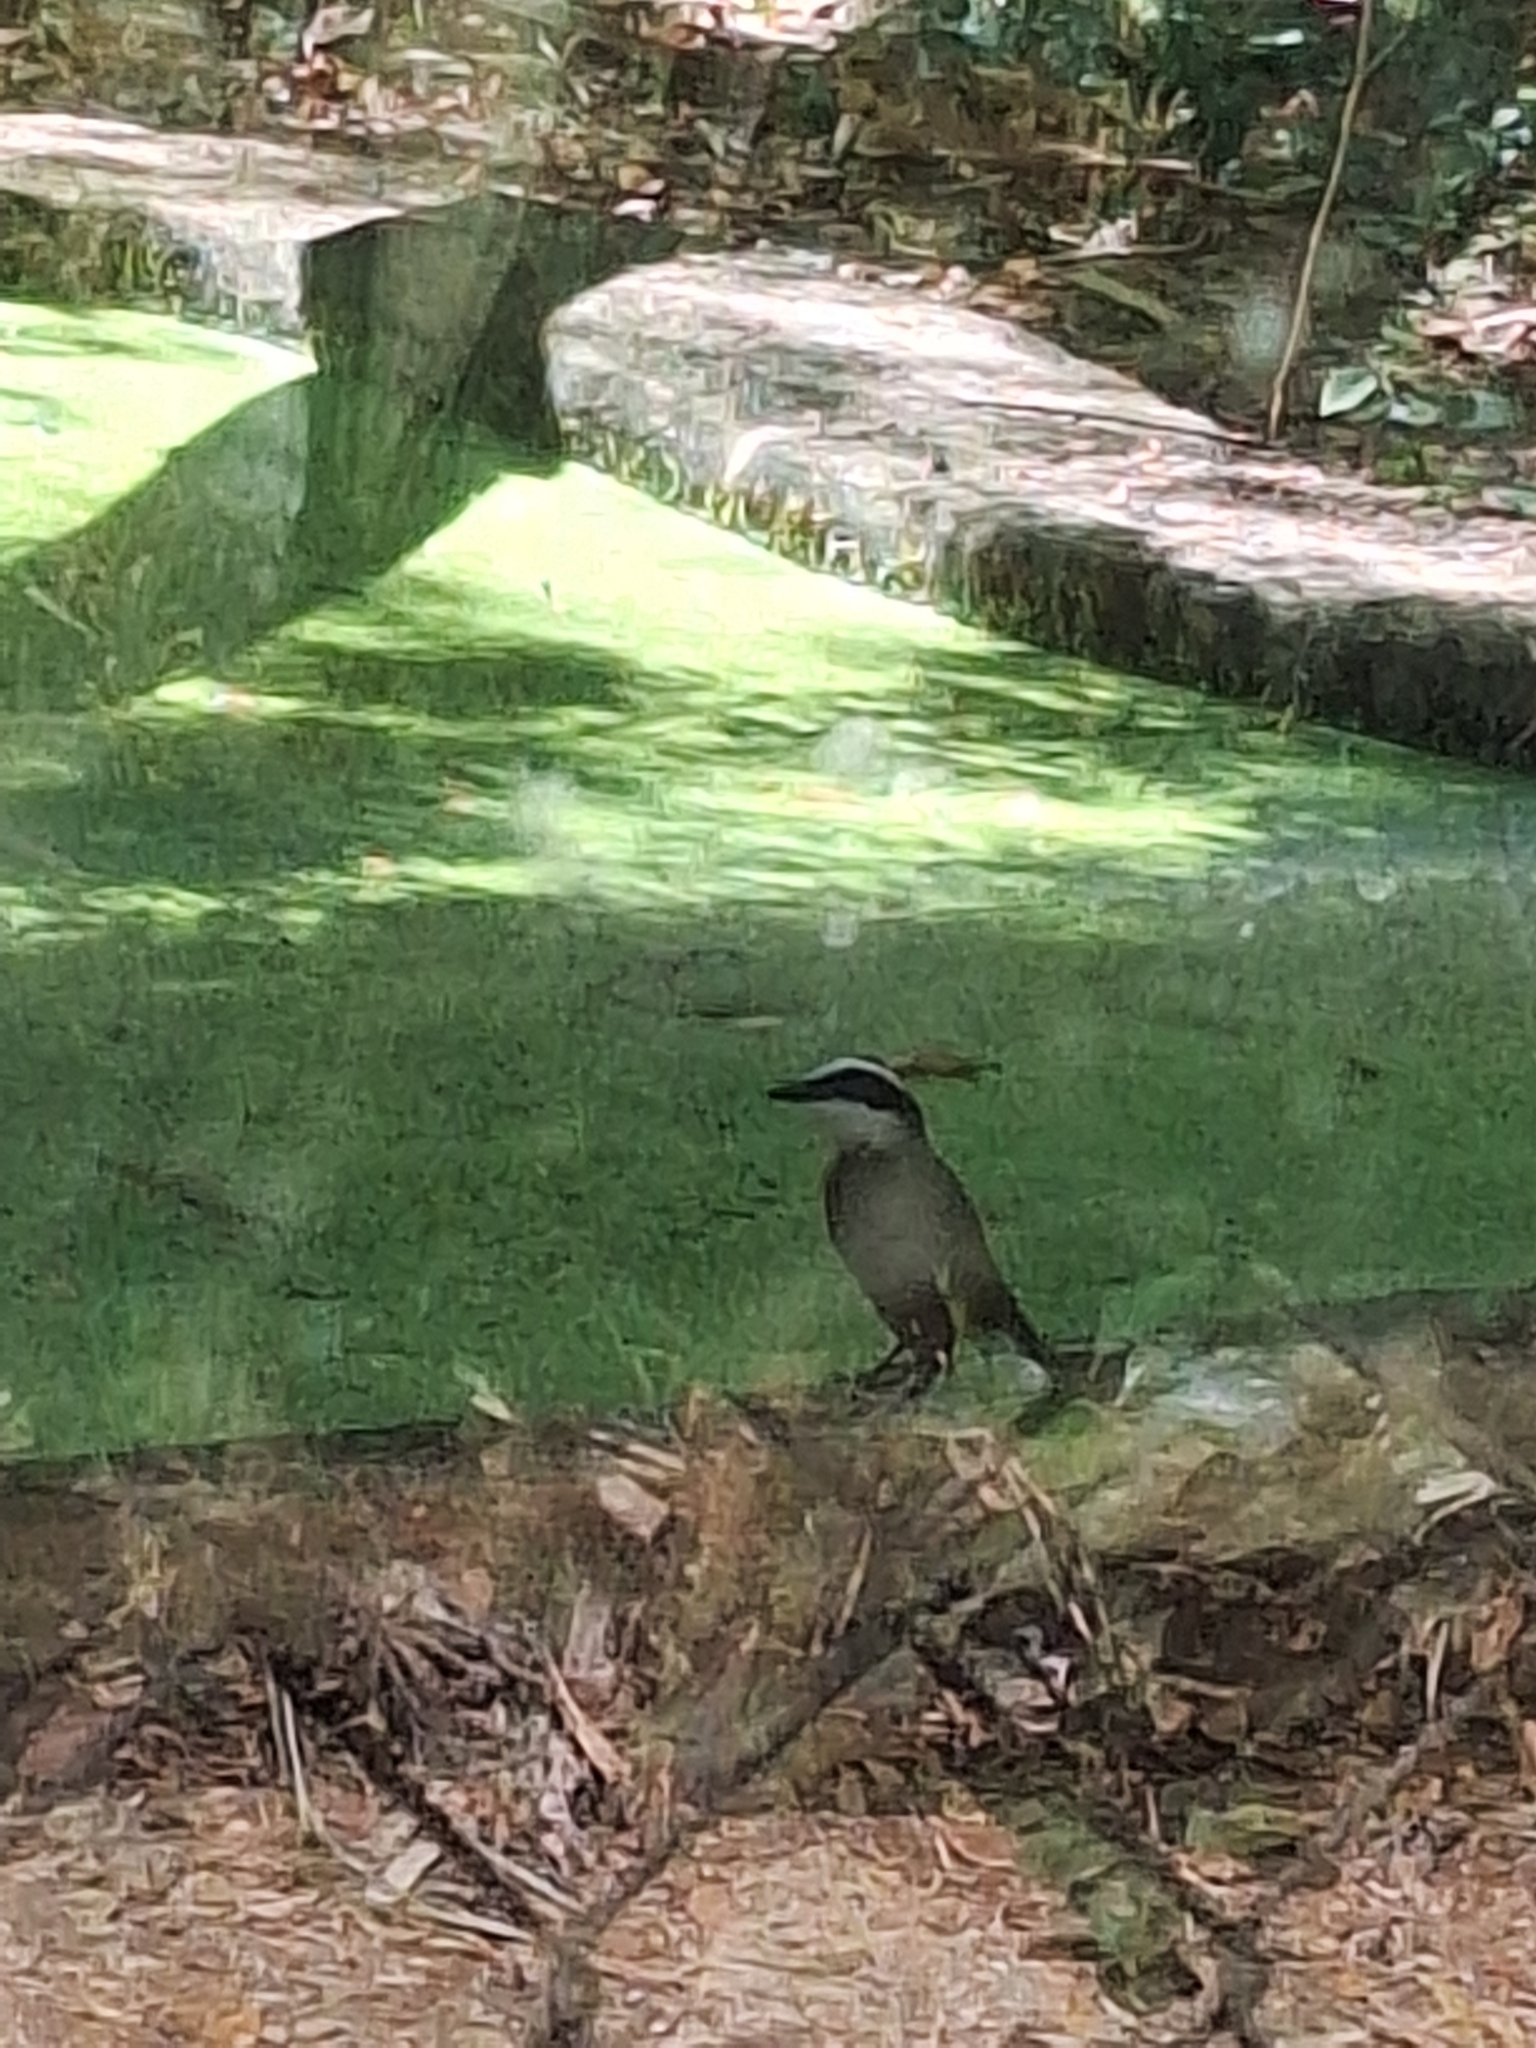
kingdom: Animalia
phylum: Chordata
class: Aves
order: Passeriformes
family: Tyrannidae
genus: Pitangus
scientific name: Pitangus sulphuratus
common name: Great kiskadee
